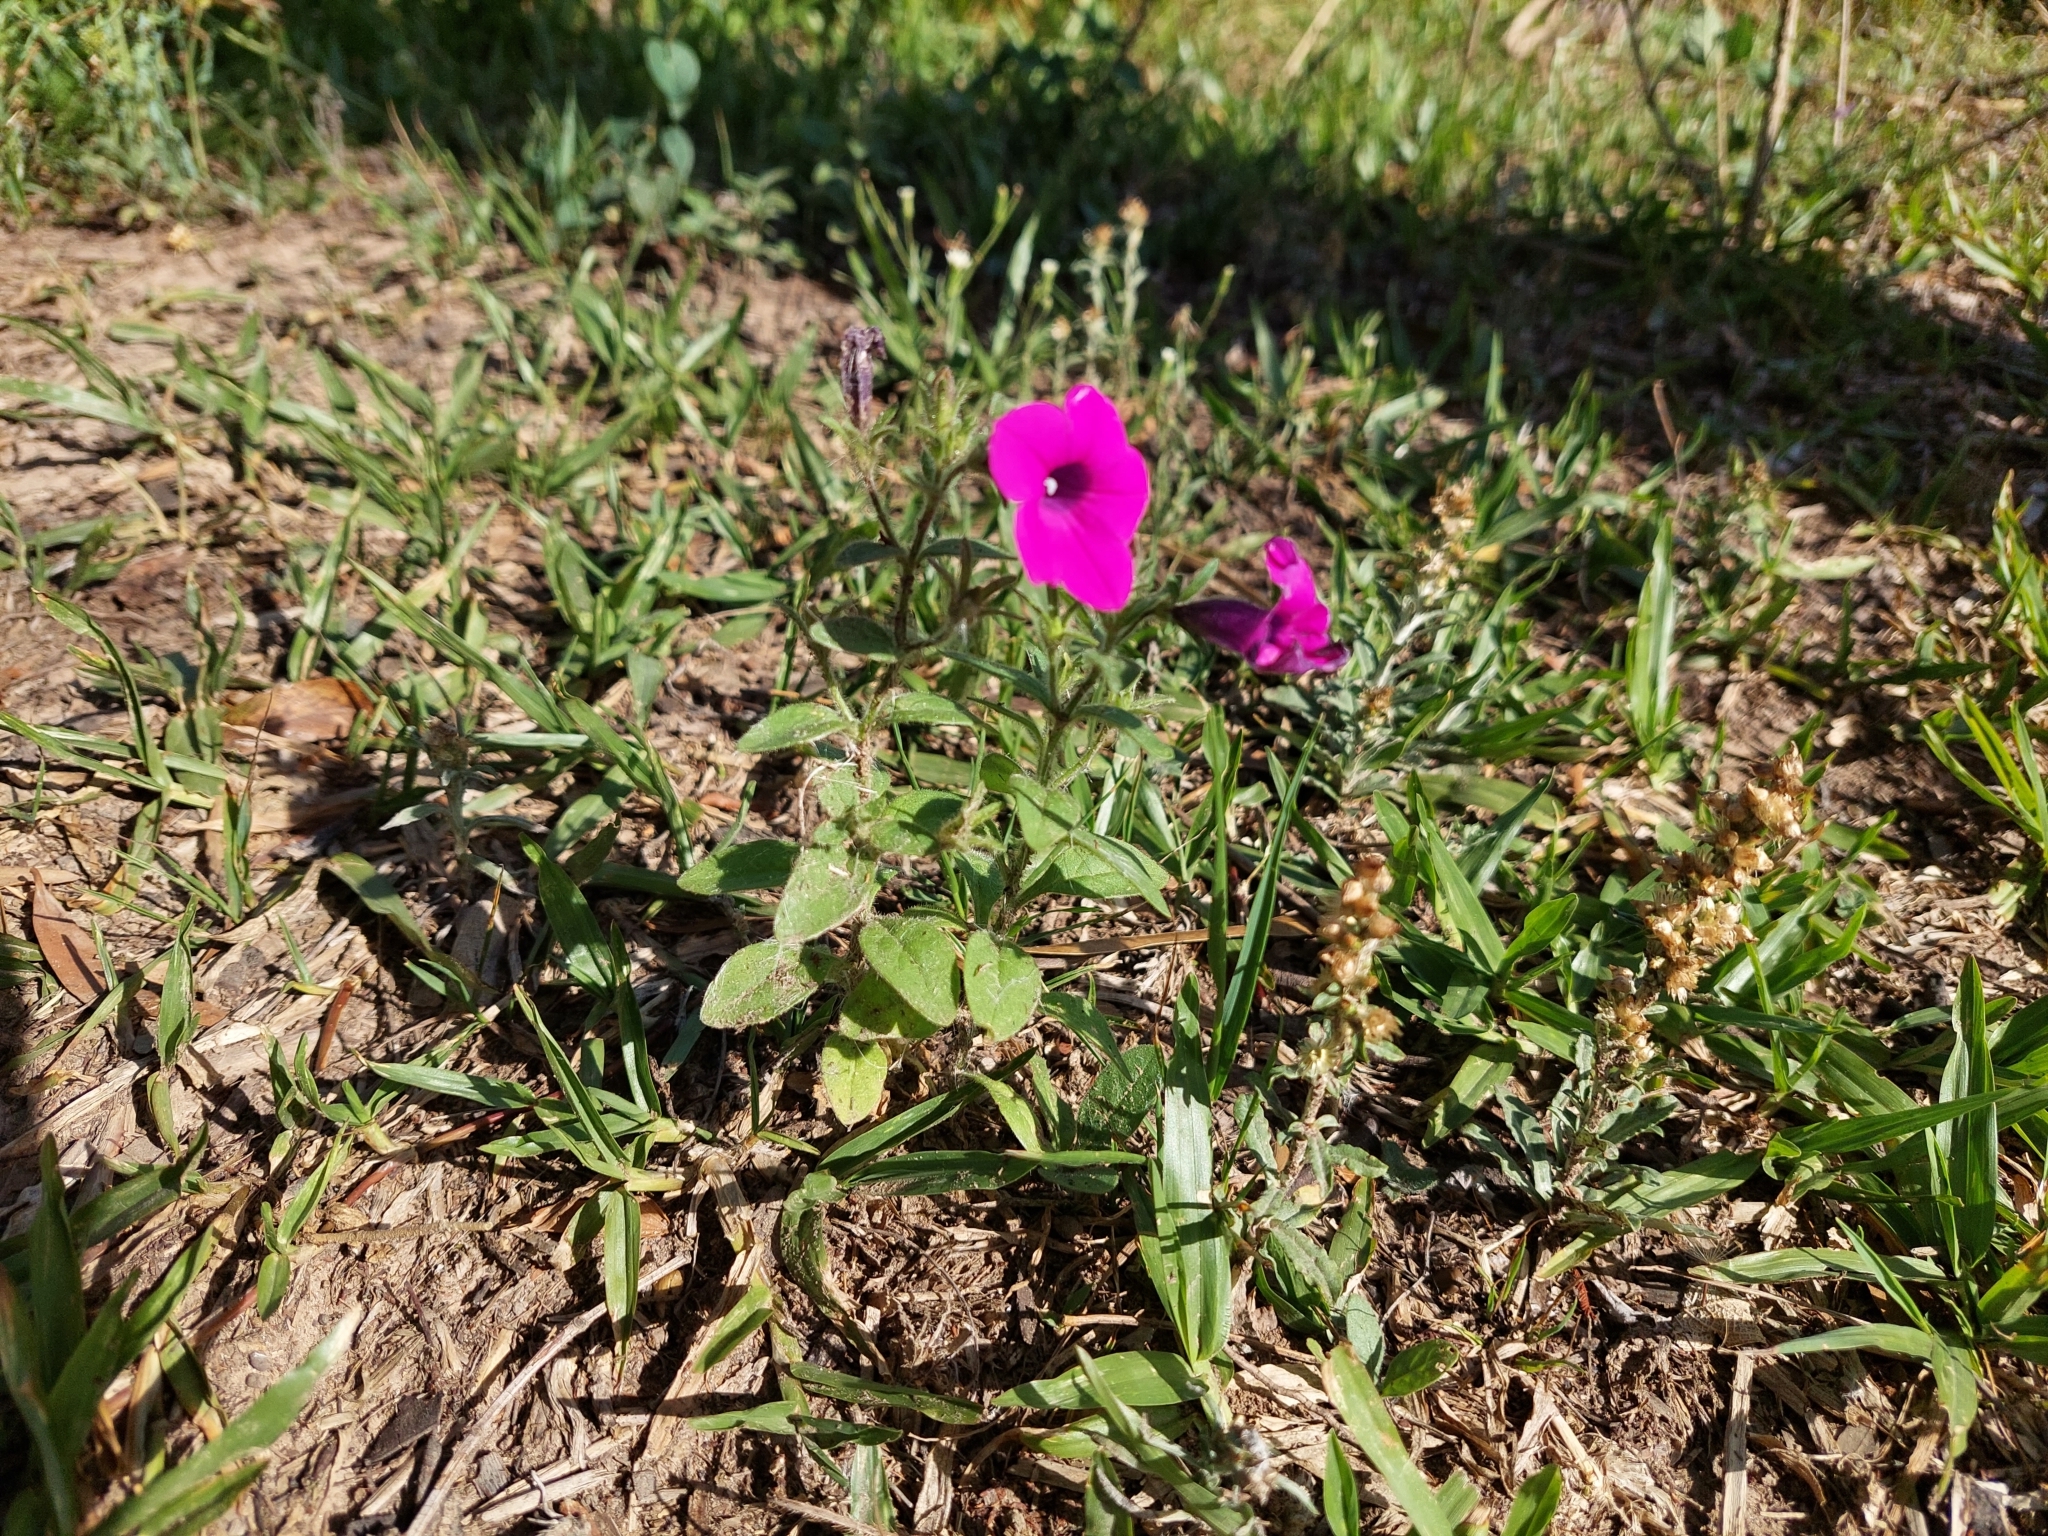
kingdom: Plantae
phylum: Tracheophyta
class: Magnoliopsida
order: Solanales
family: Solanaceae
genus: Petunia
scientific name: Petunia integrifolia
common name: Violet-flower petunia
